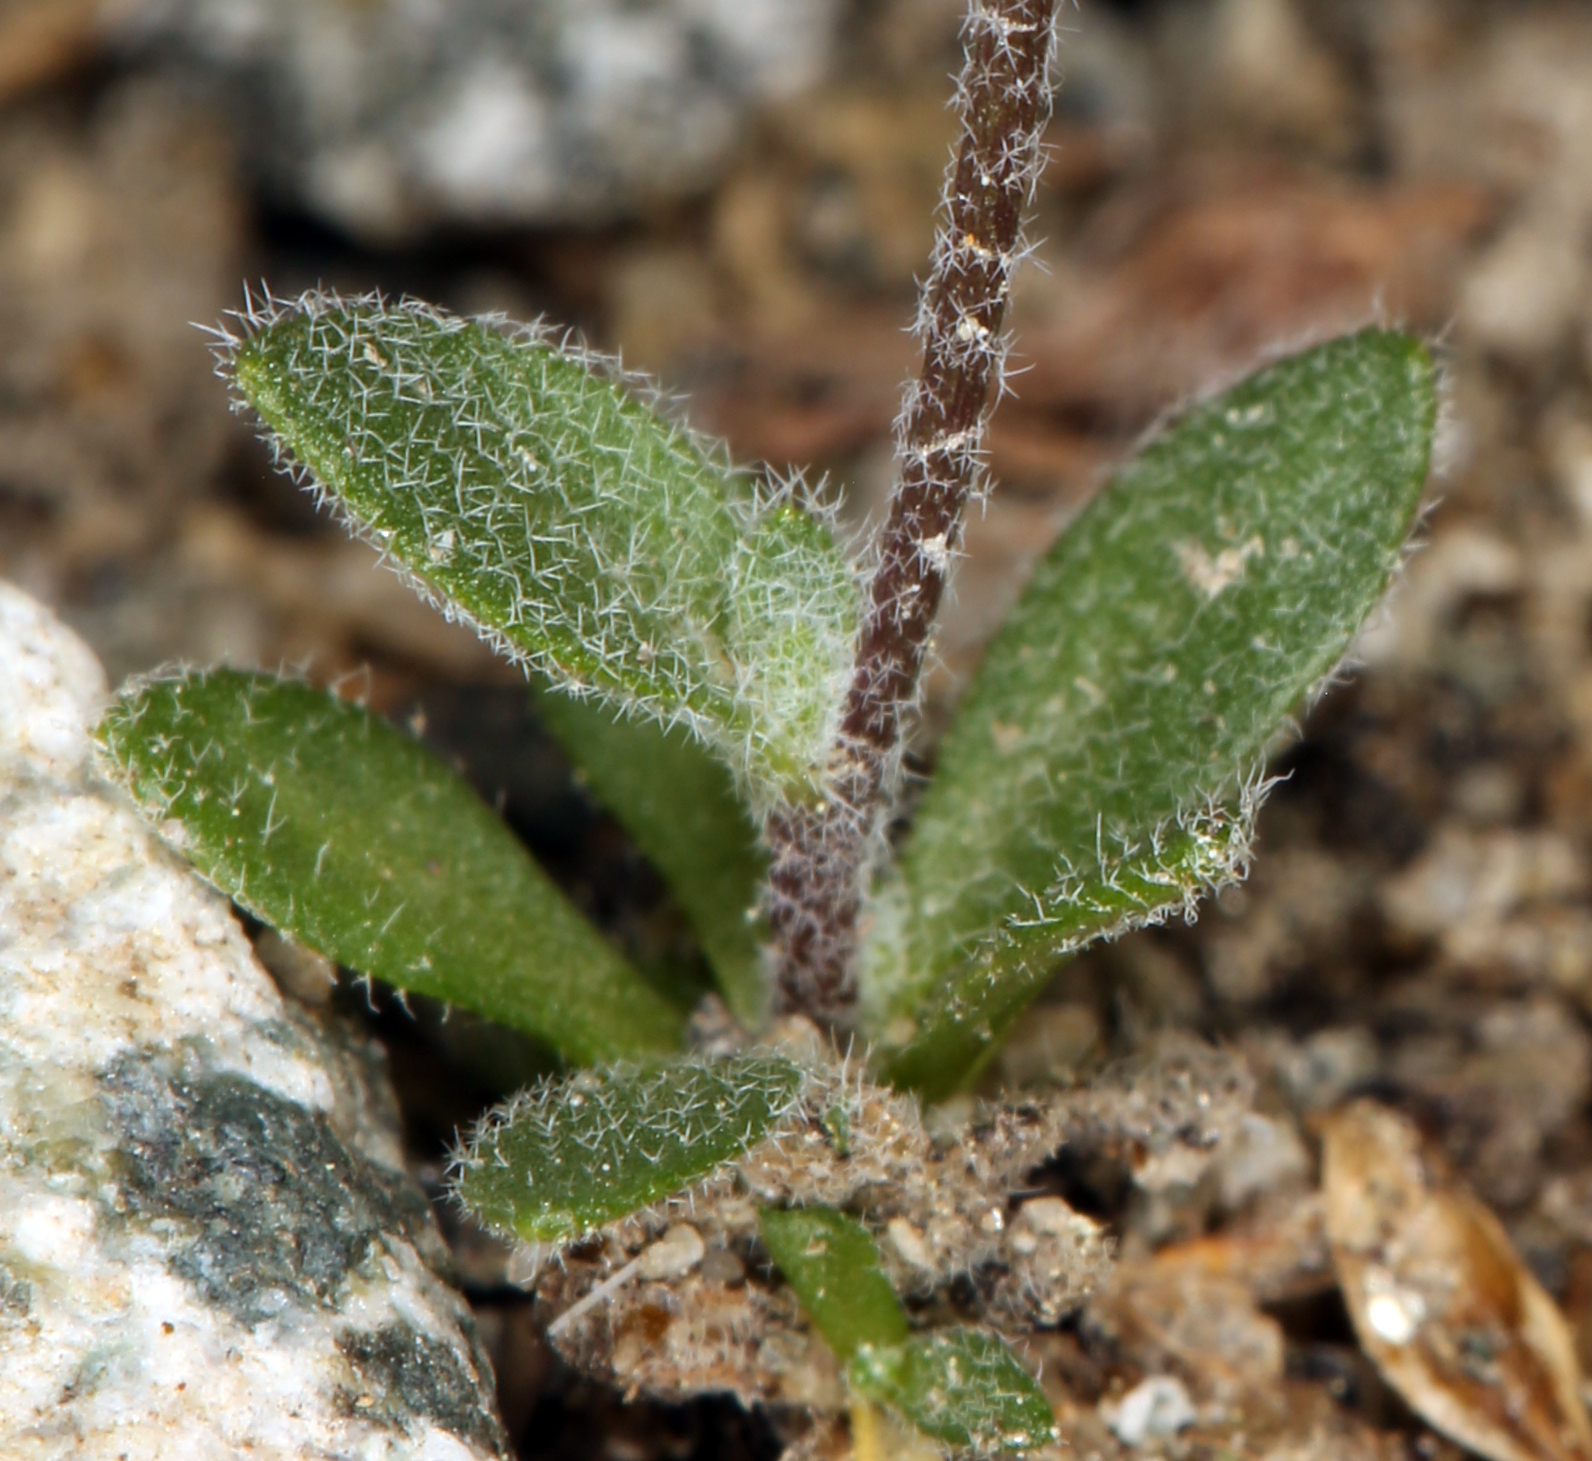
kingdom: Plantae
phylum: Tracheophyta
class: Magnoliopsida
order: Brassicales
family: Brassicaceae
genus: Draba
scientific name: Draba californica
